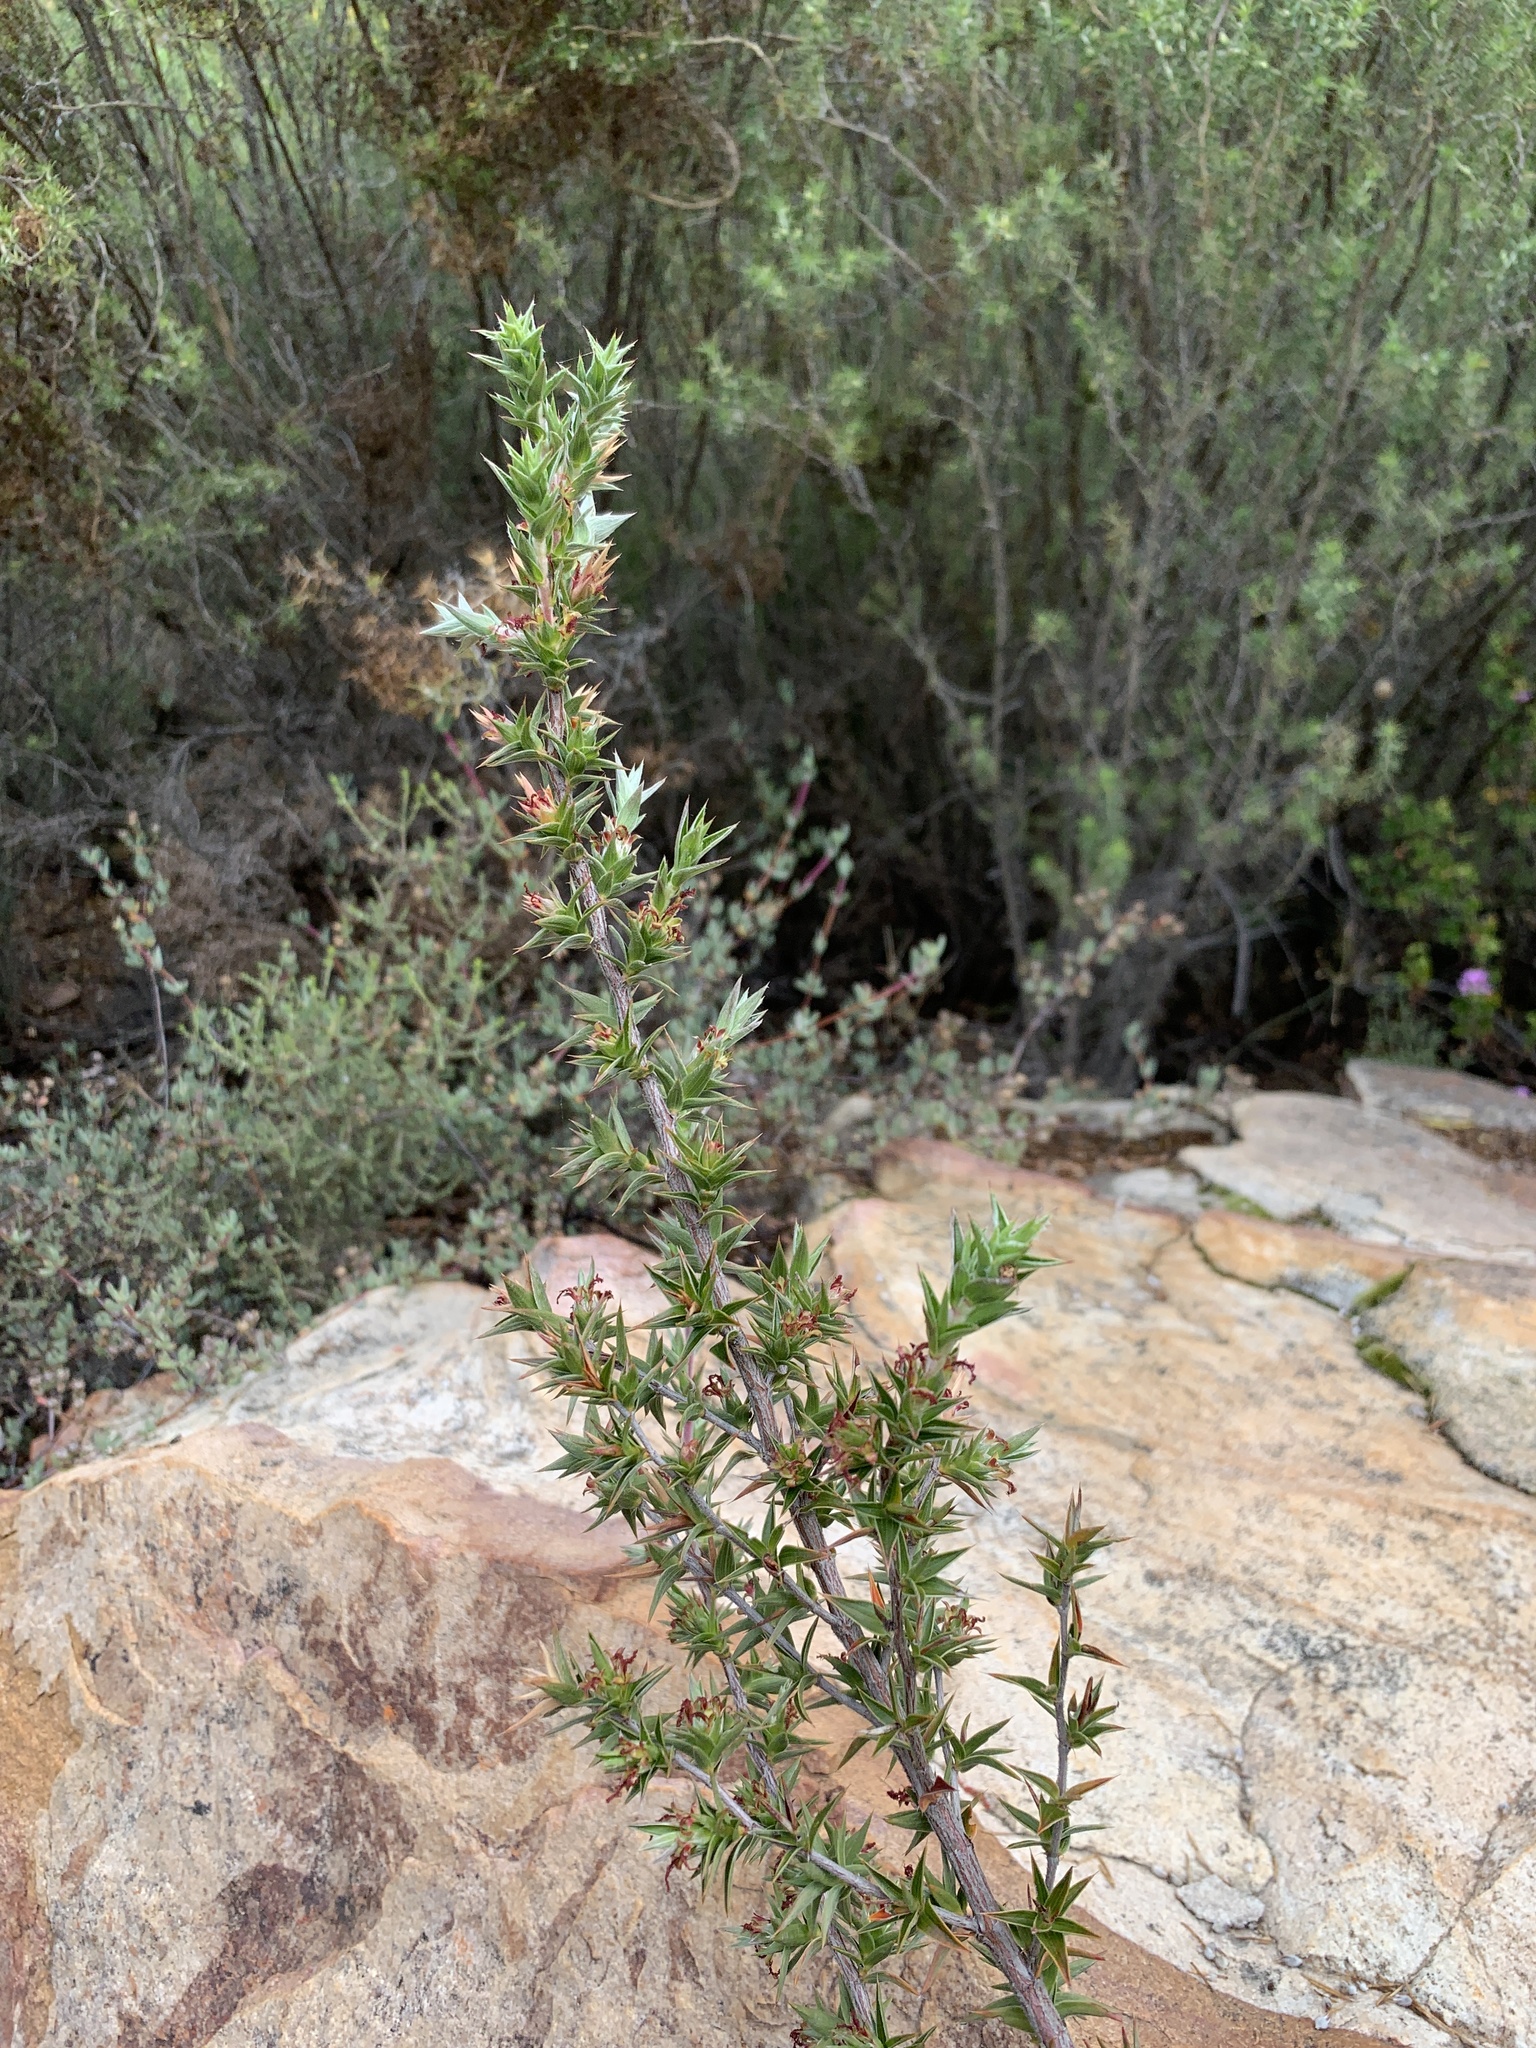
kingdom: Plantae
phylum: Tracheophyta
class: Magnoliopsida
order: Rosales
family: Rosaceae
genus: Cliffortia
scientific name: Cliffortia ruscifolia
